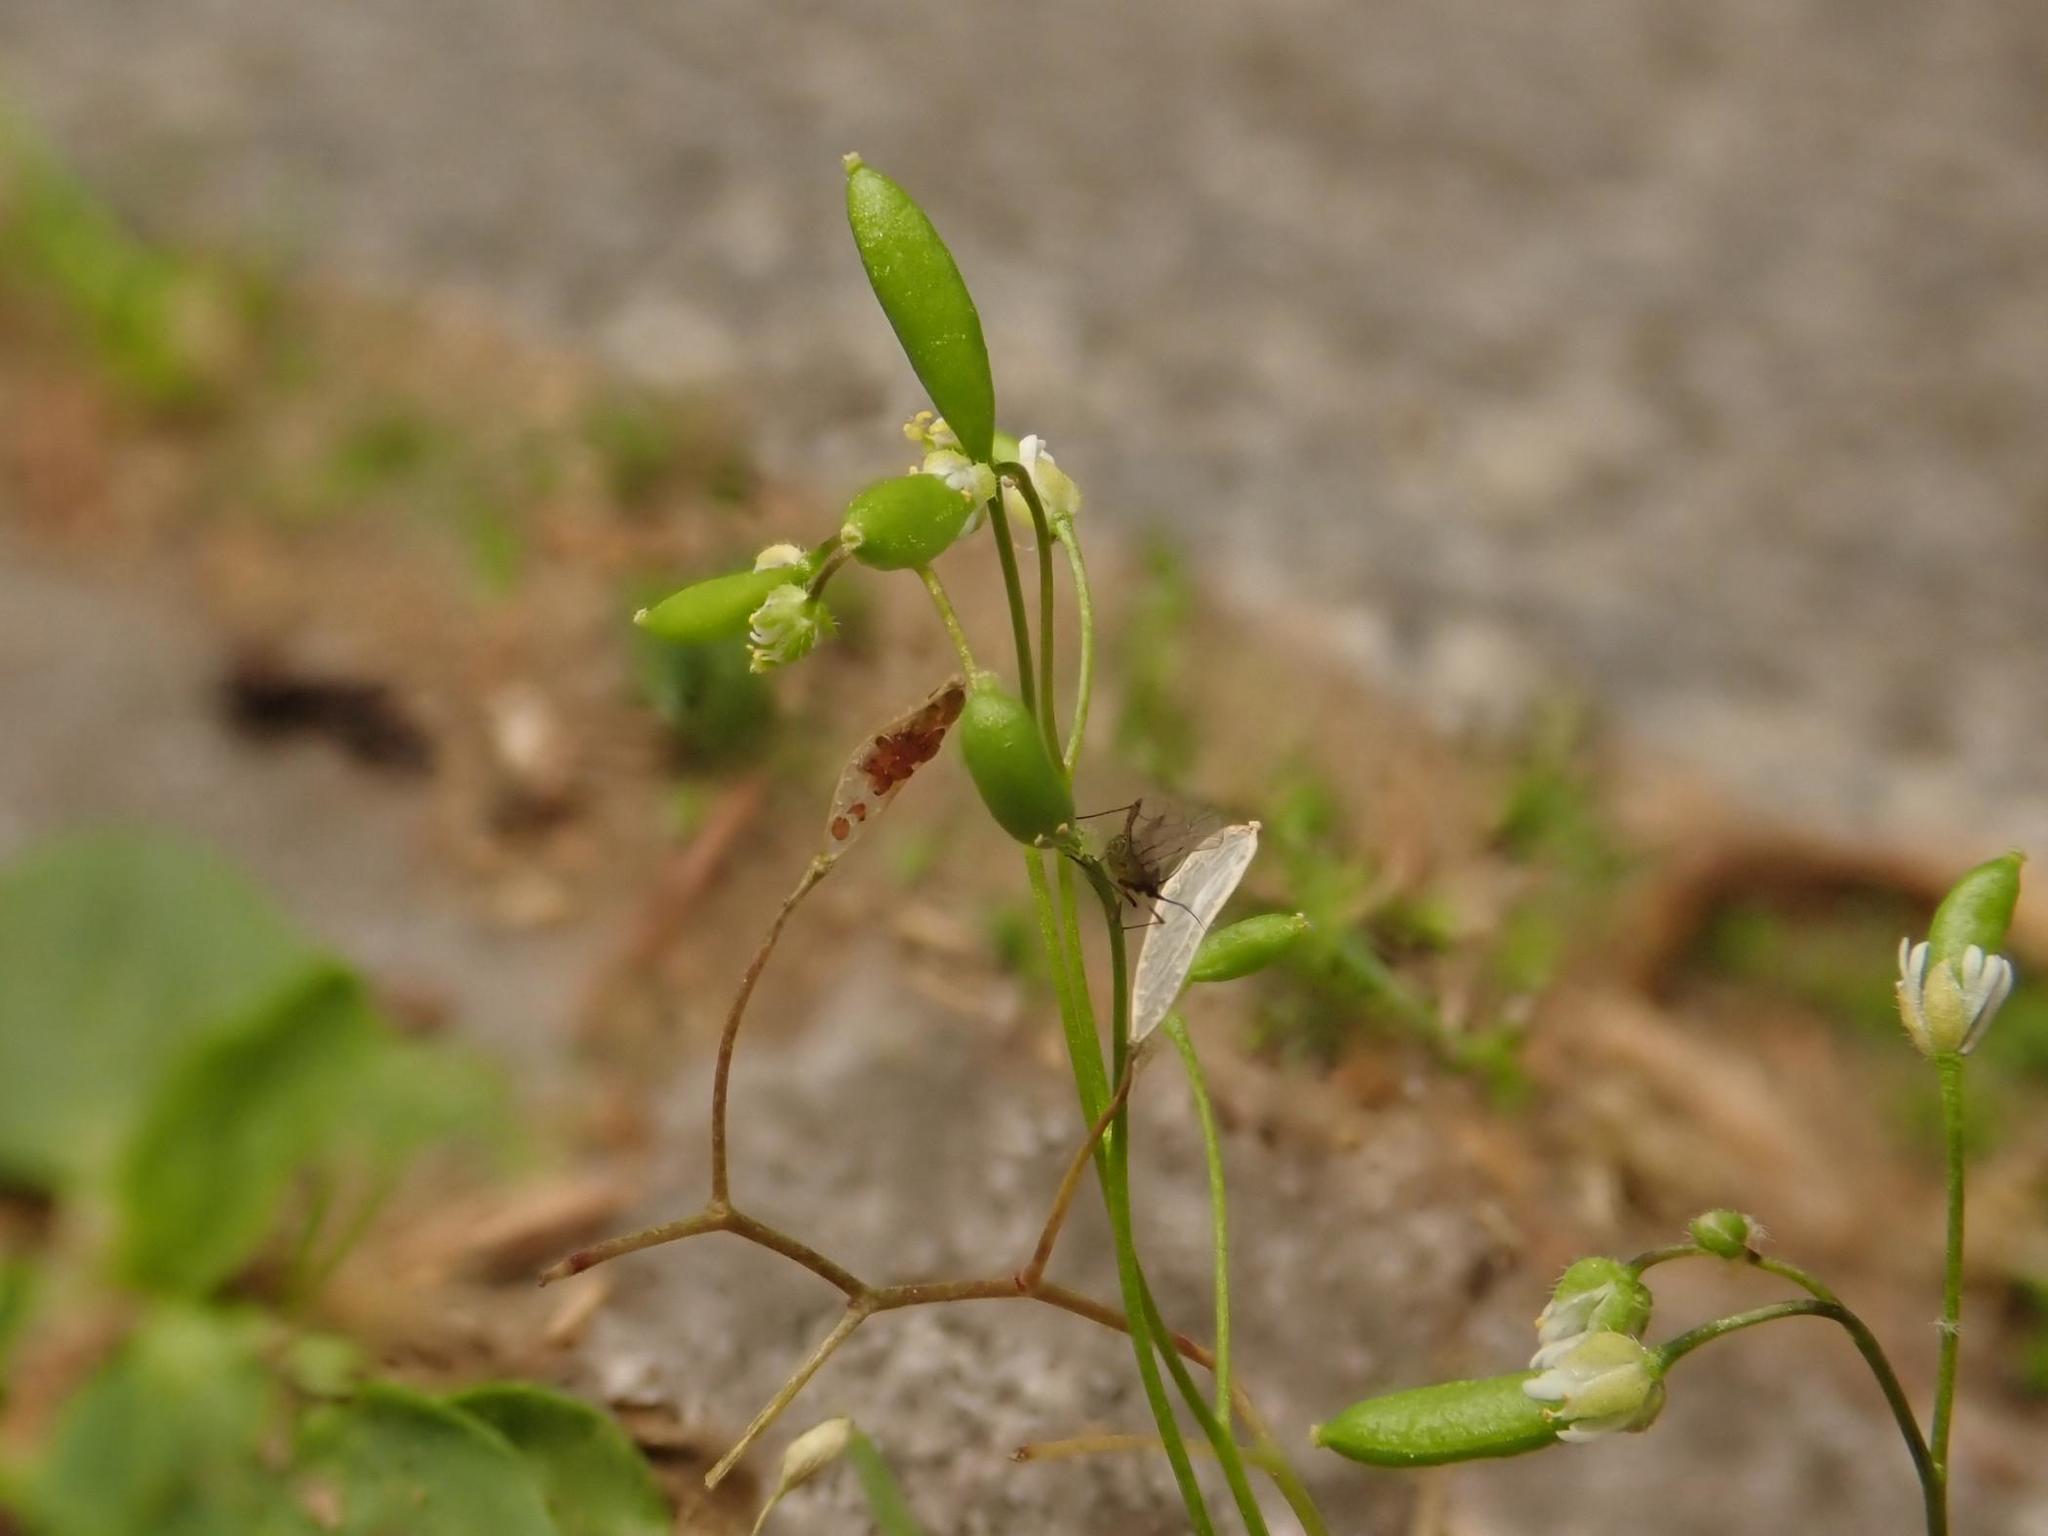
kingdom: Plantae
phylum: Tracheophyta
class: Magnoliopsida
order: Brassicales
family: Brassicaceae
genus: Draba
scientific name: Draba verna
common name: Spring draba
